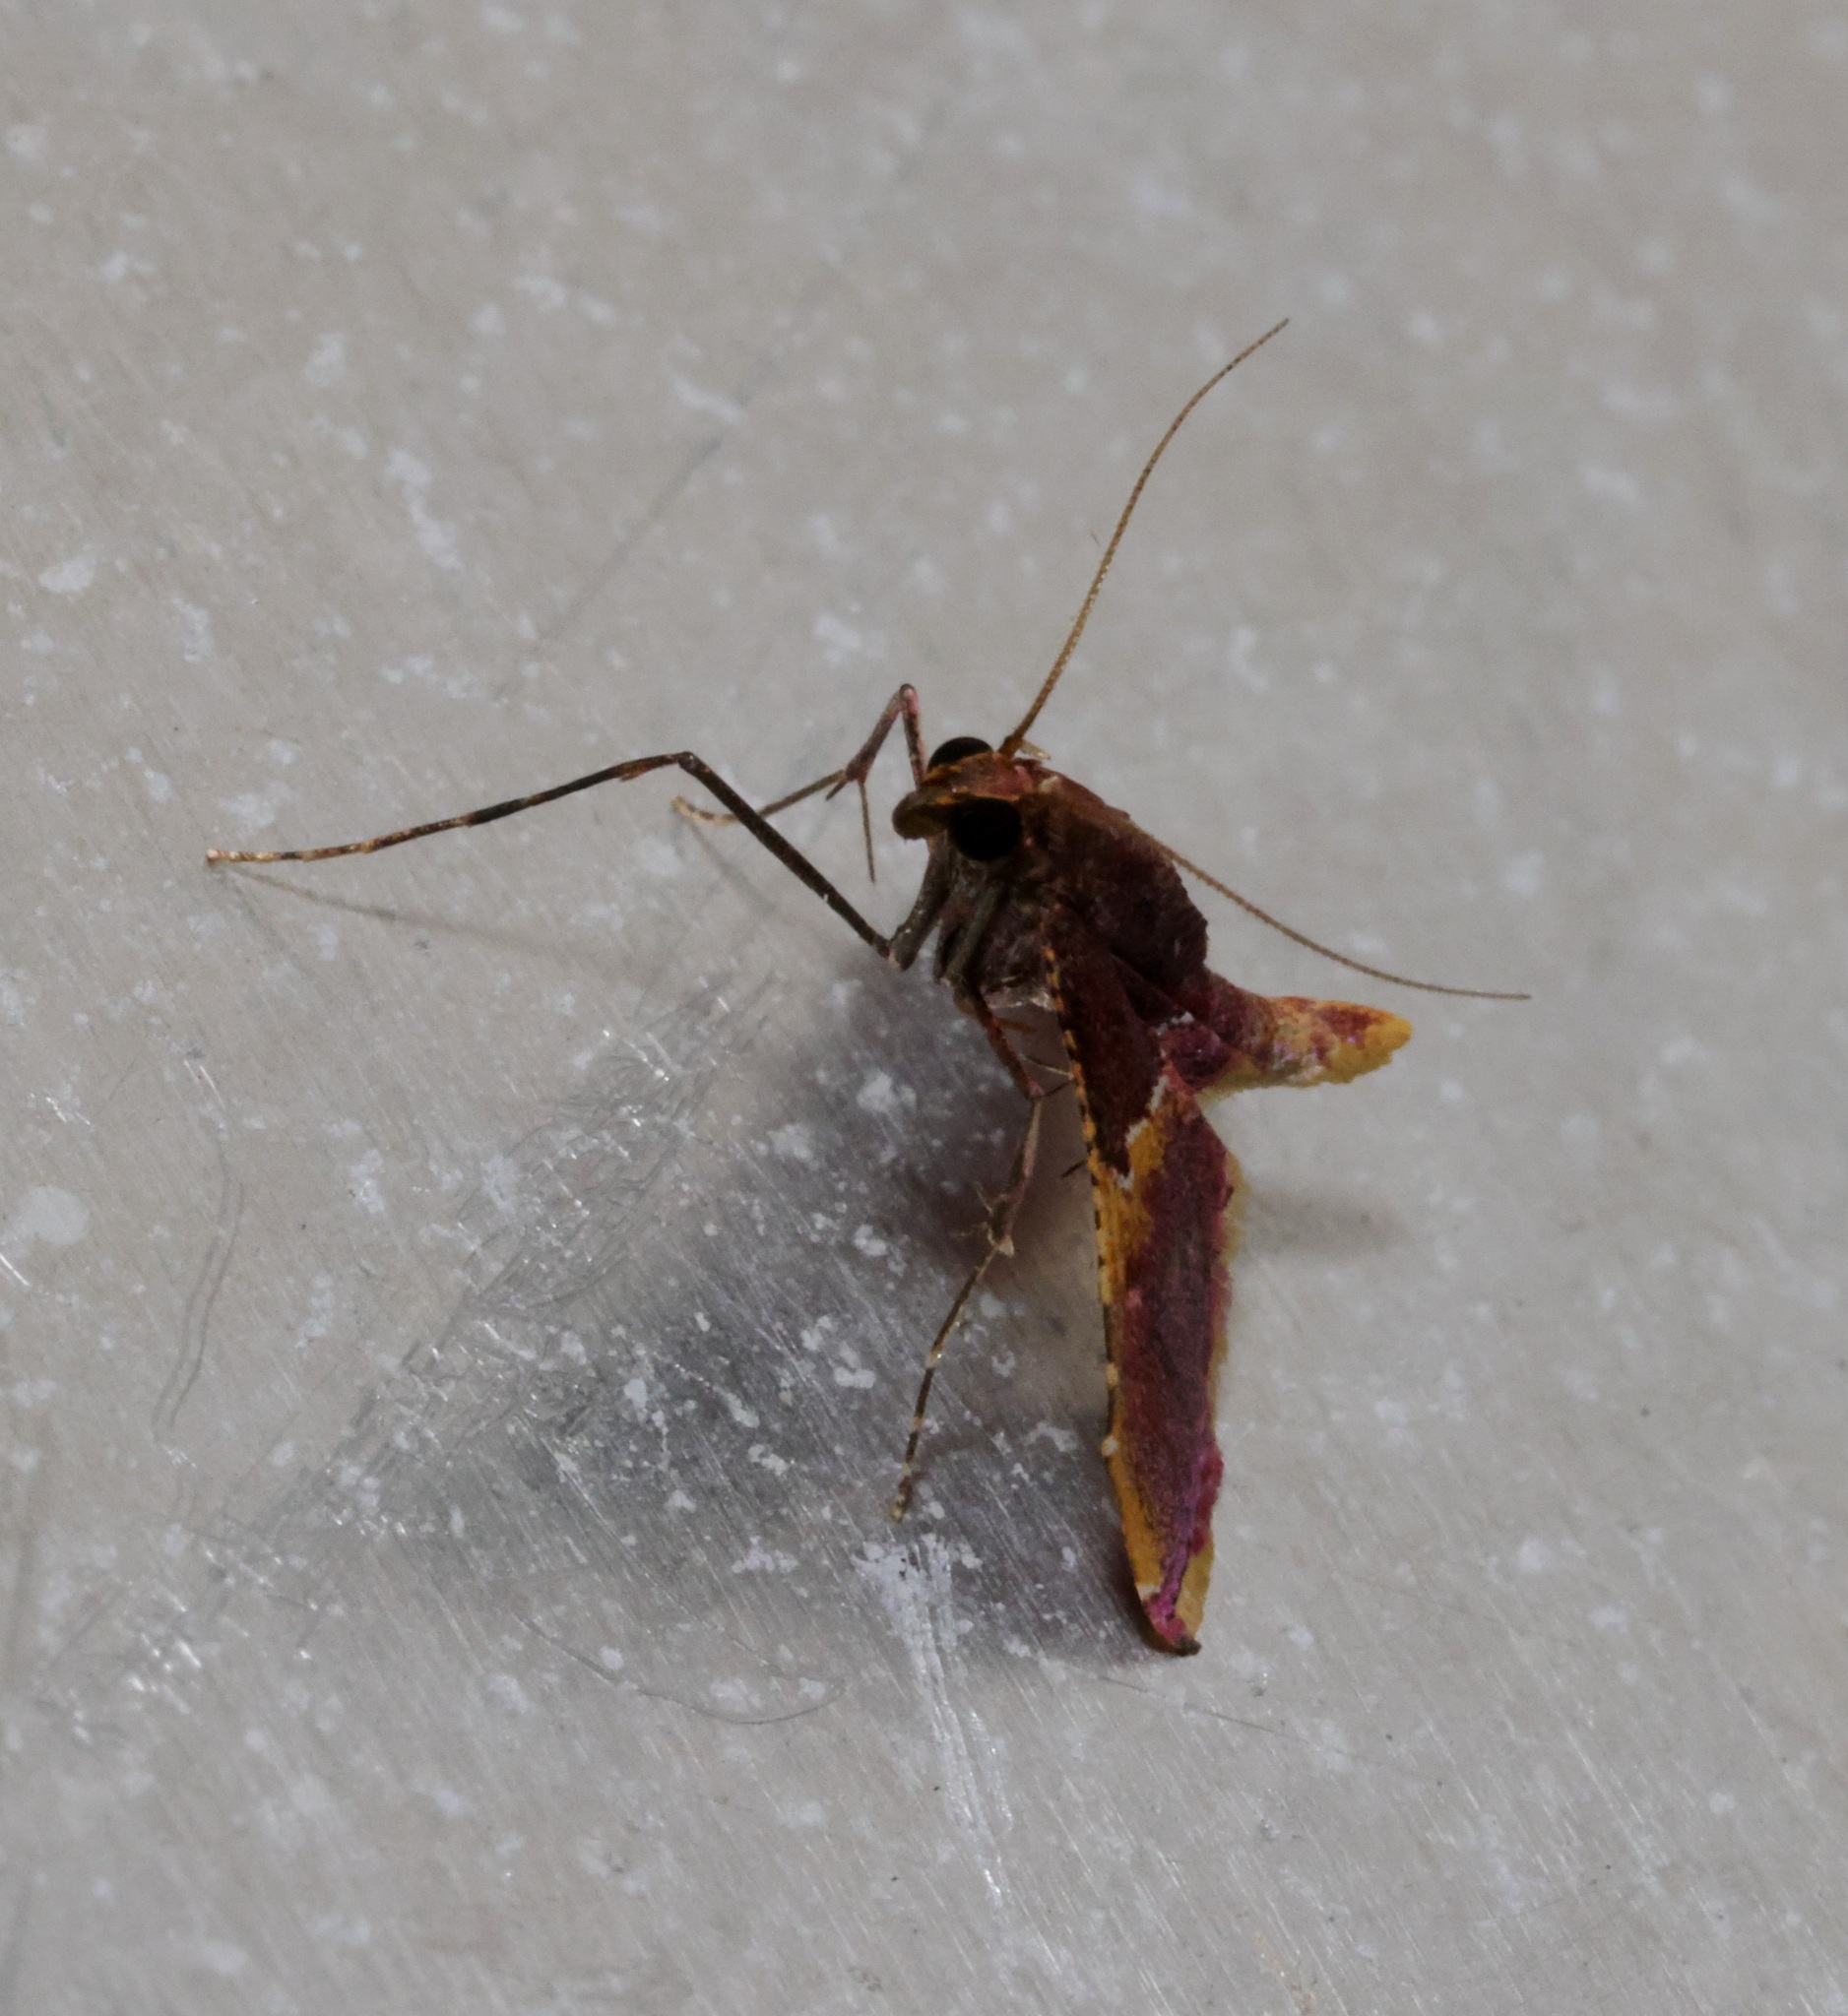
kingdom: Animalia
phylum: Arthropoda
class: Insecta
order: Lepidoptera
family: Pyralidae
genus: Endotricha
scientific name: Endotricha olivacealis
